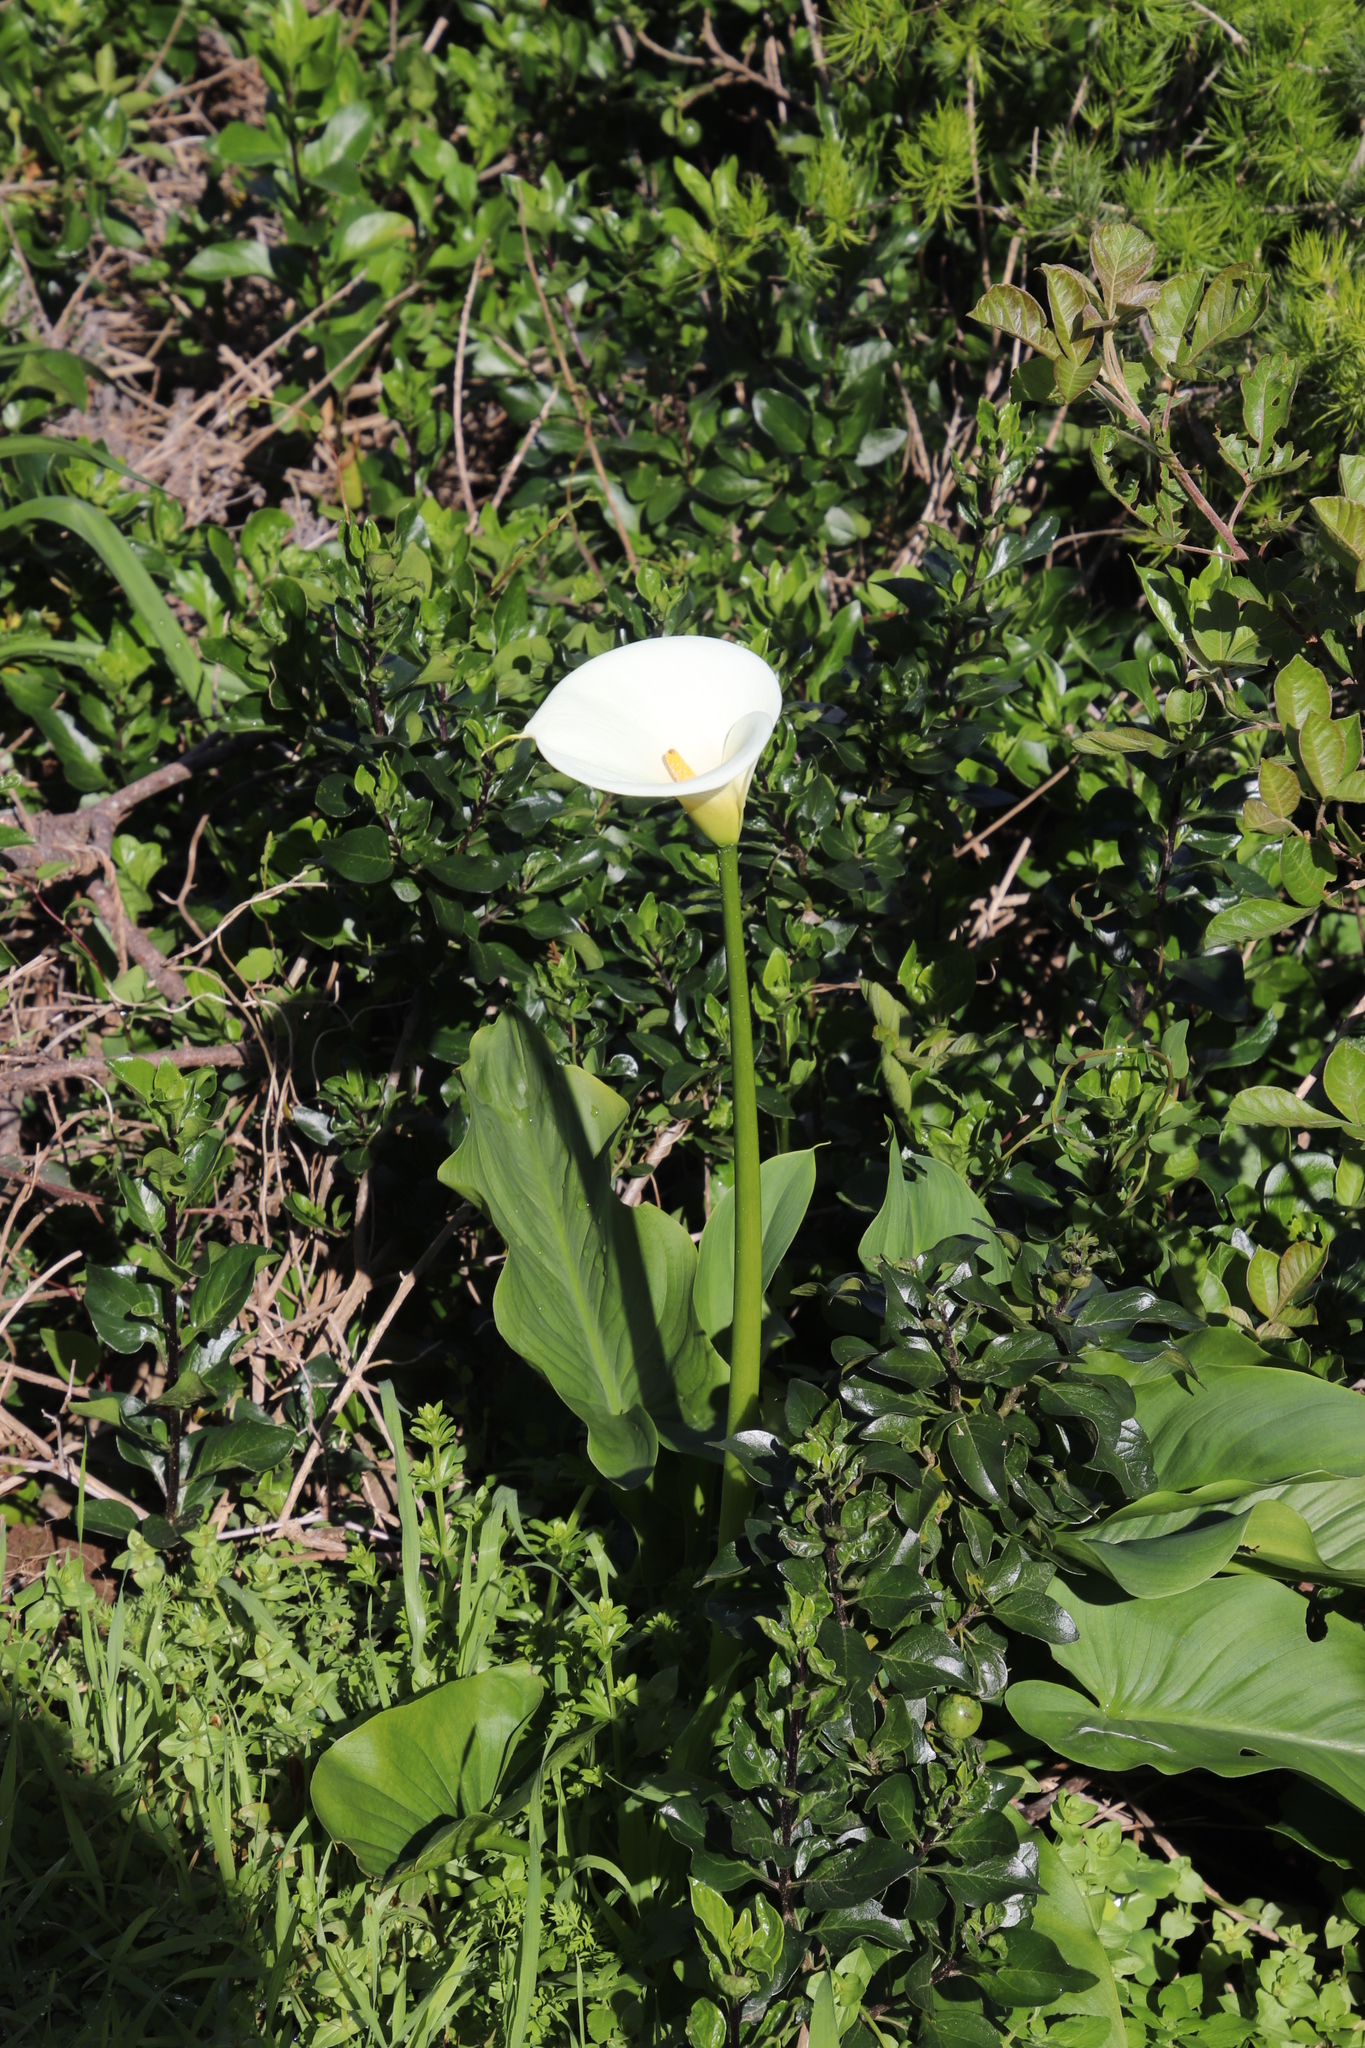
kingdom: Plantae
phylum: Tracheophyta
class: Liliopsida
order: Alismatales
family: Araceae
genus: Zantedeschia
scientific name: Zantedeschia aethiopica
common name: Altar-lily
